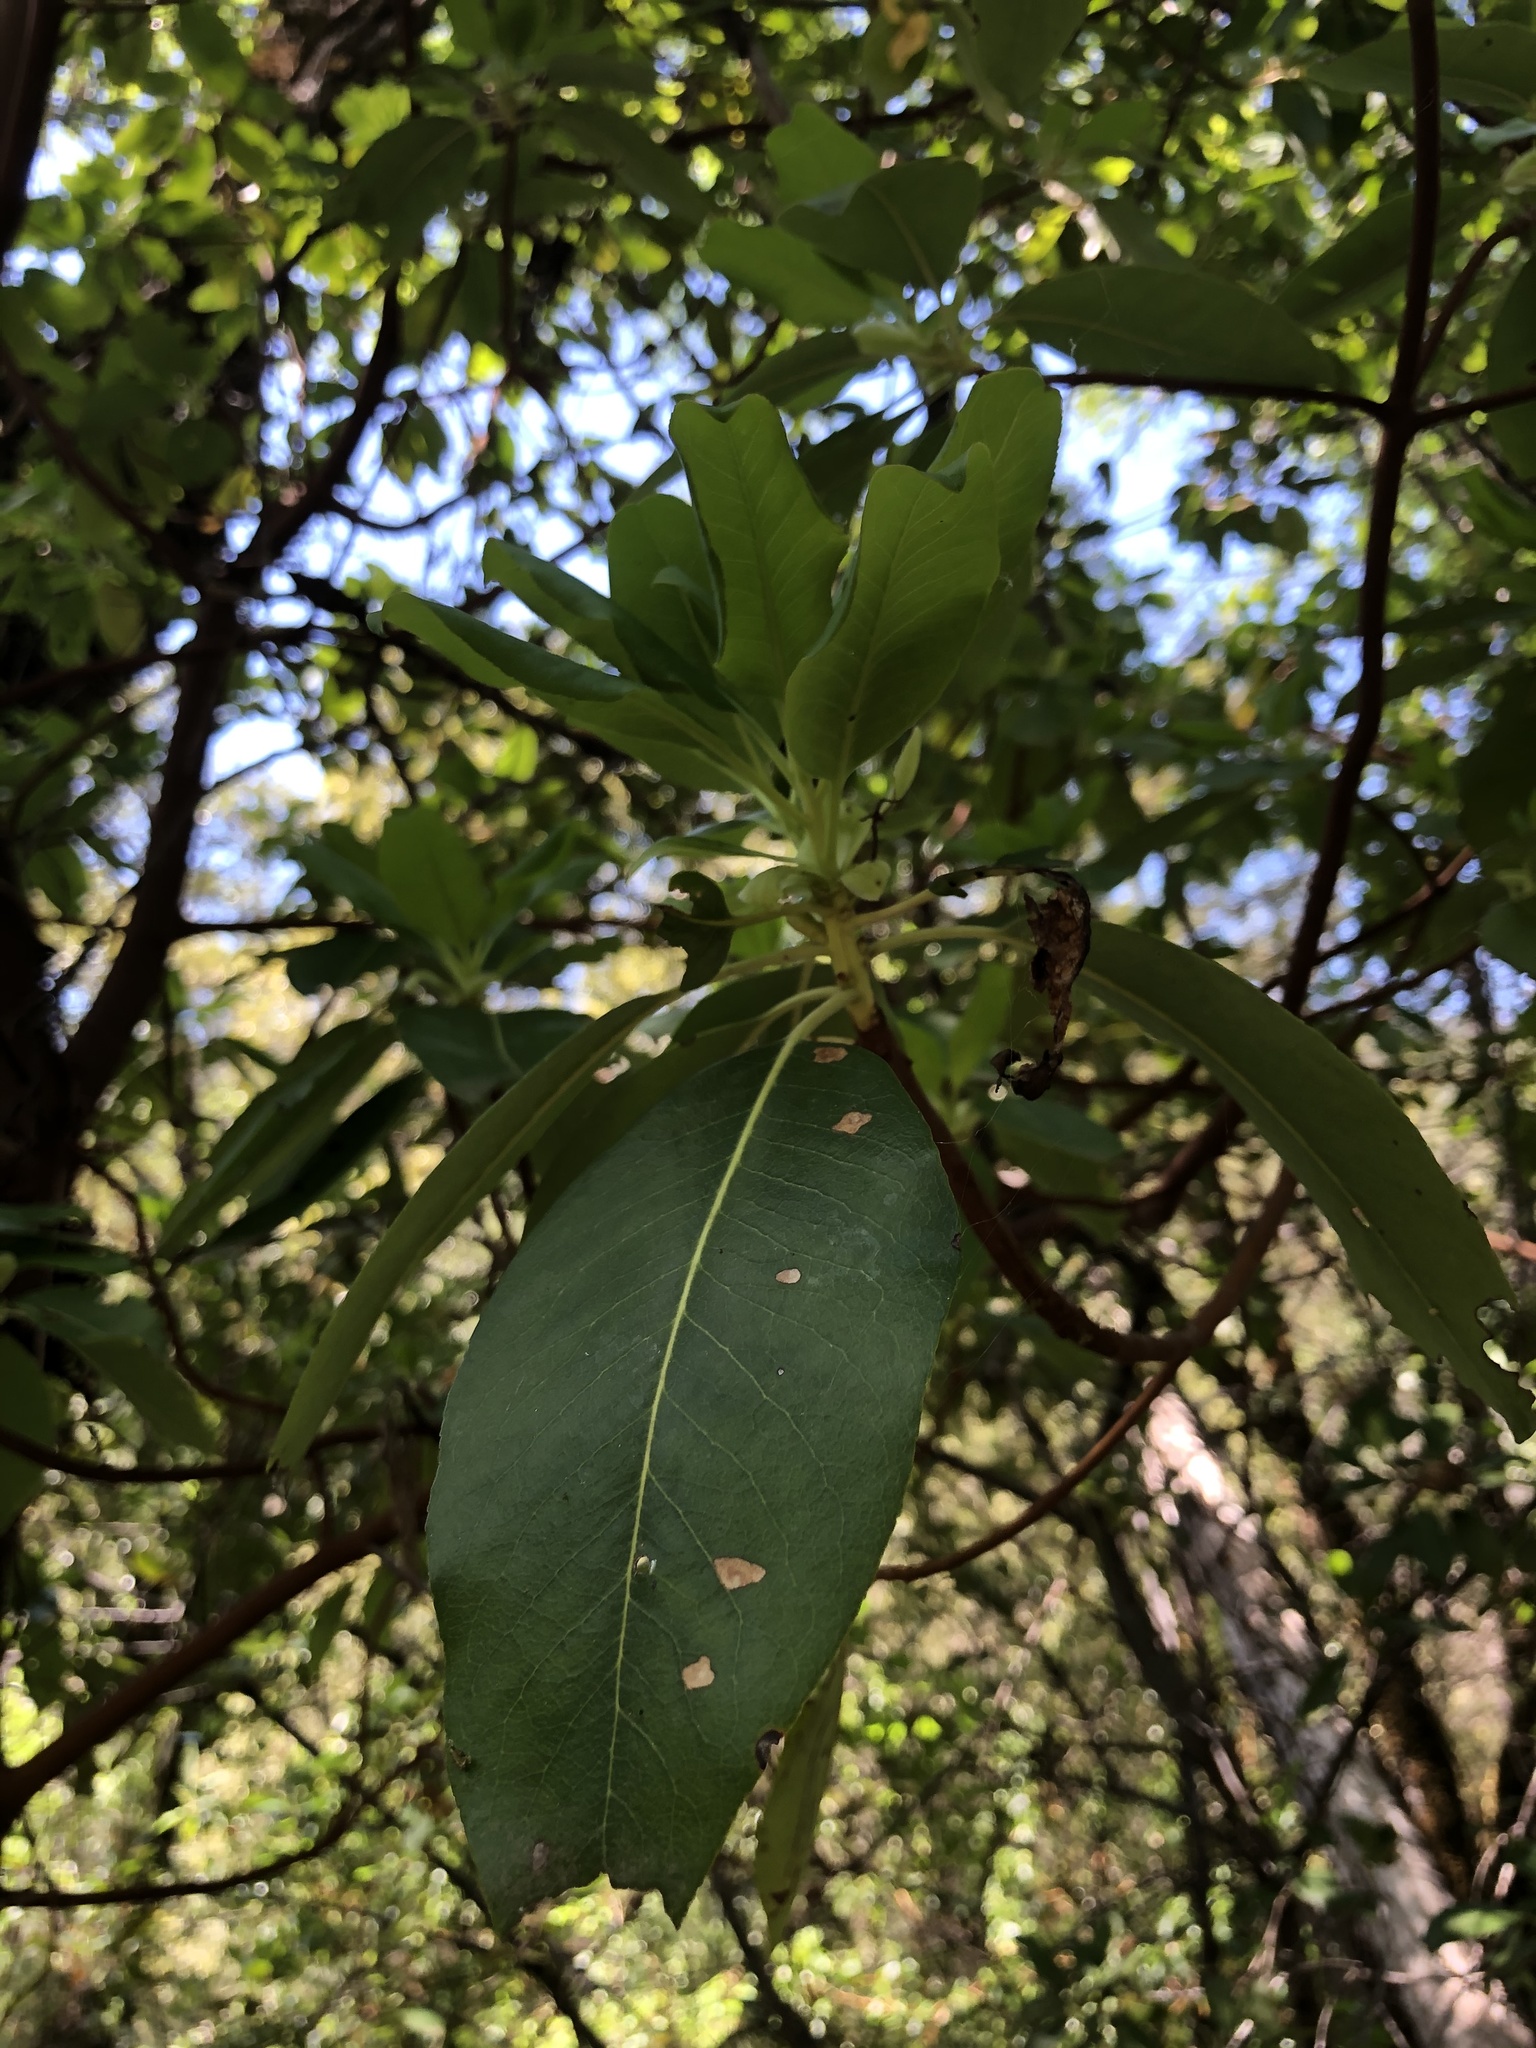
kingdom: Plantae
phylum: Tracheophyta
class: Magnoliopsida
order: Ericales
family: Ericaceae
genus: Arbutus
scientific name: Arbutus menziesii
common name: Pacific madrone
